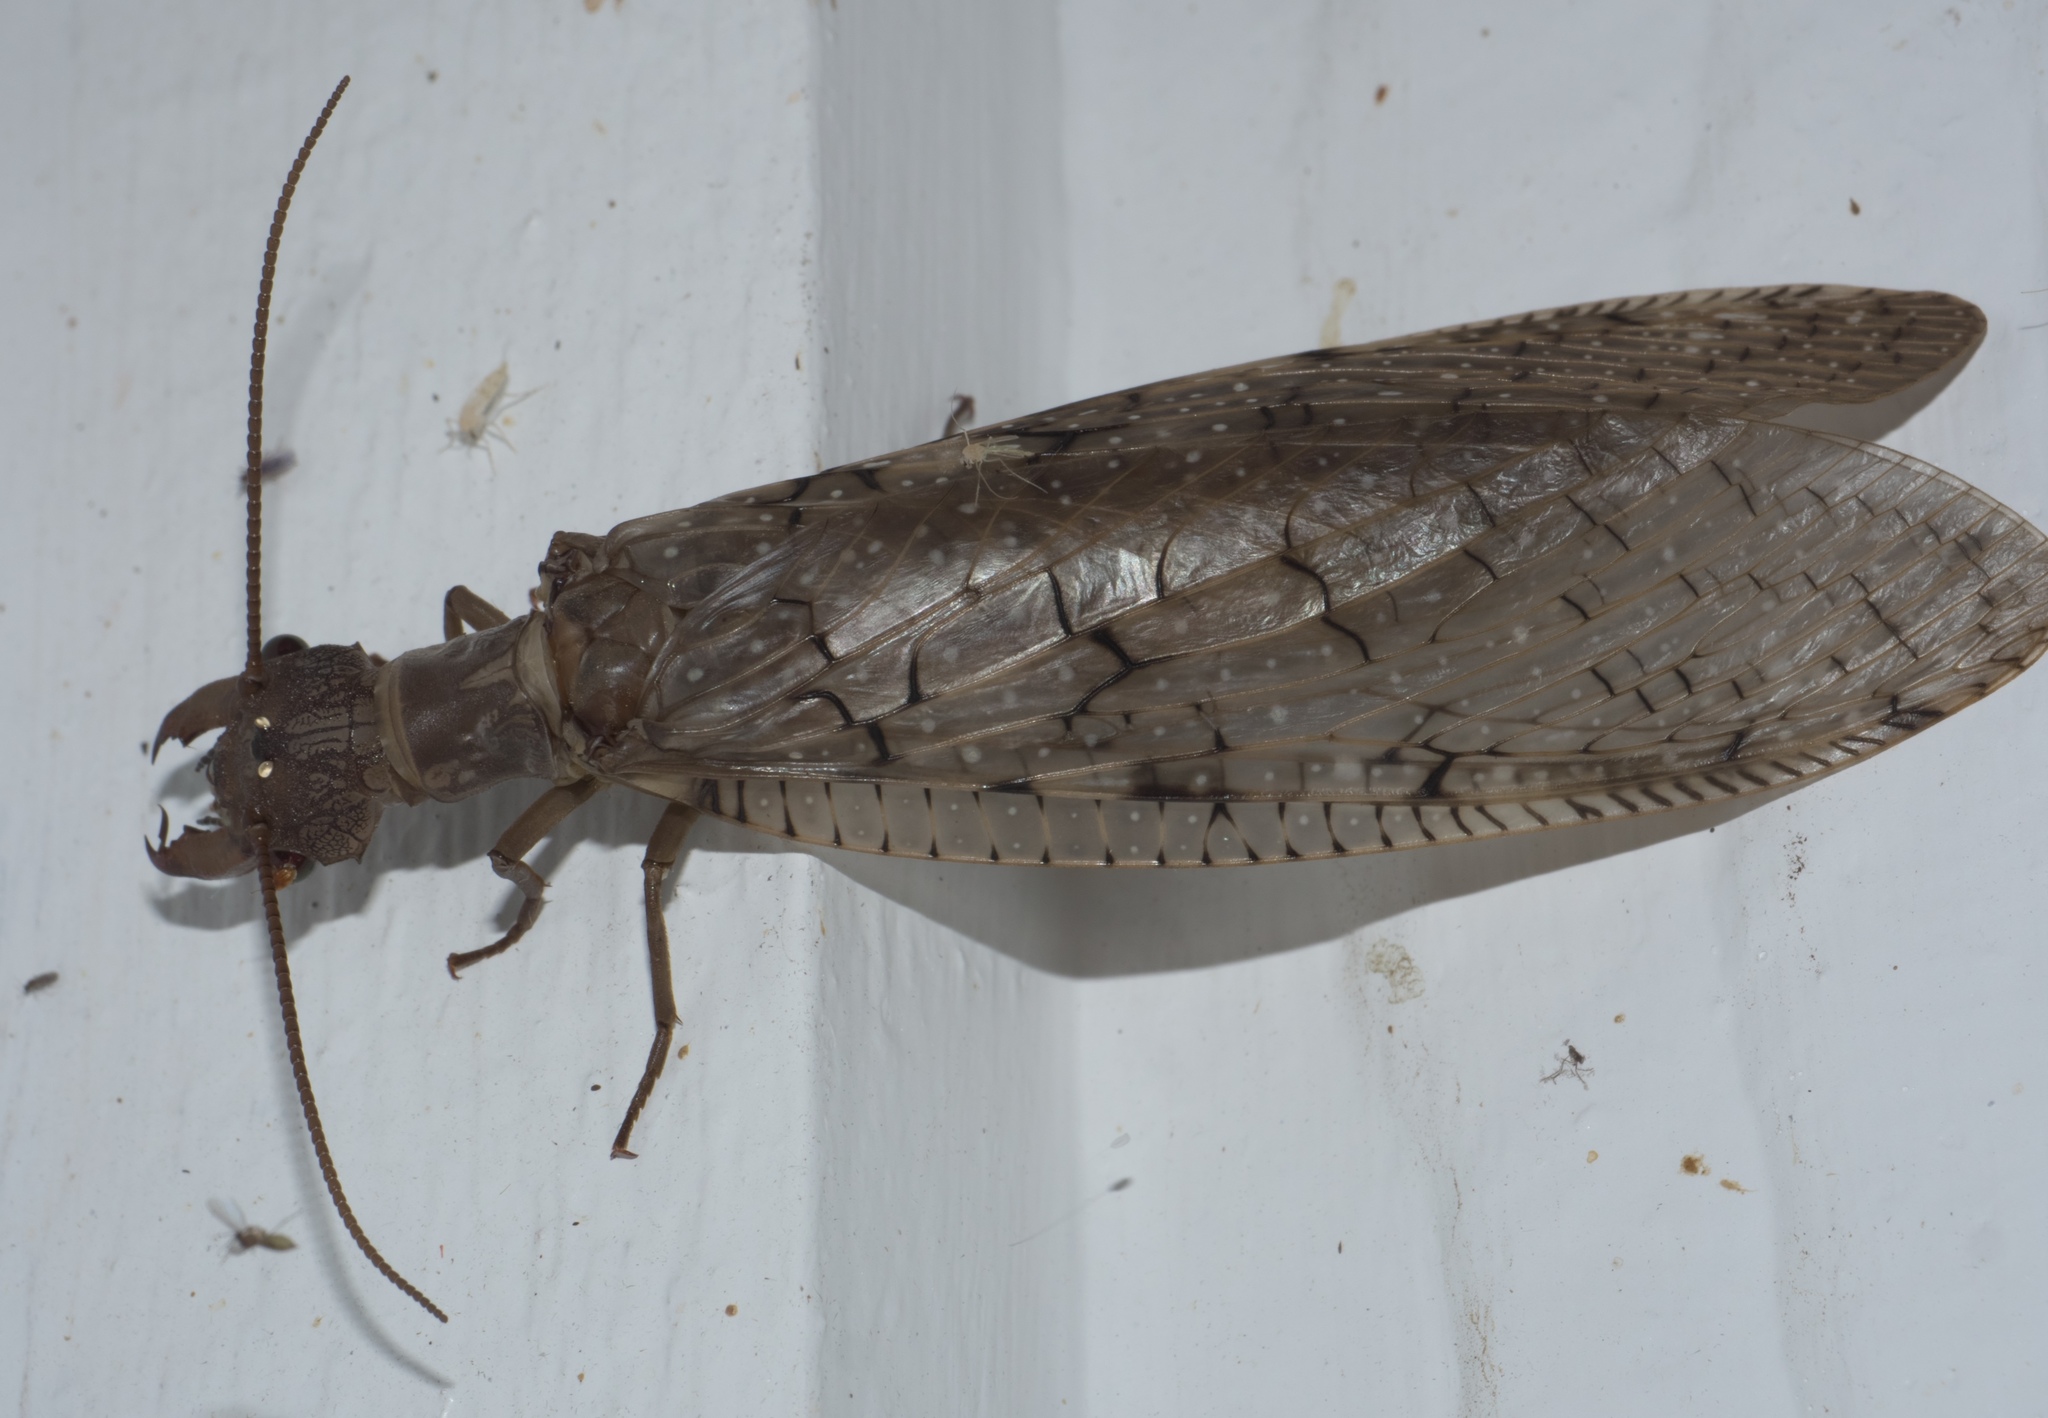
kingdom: Animalia
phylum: Arthropoda
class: Insecta
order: Megaloptera
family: Corydalidae
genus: Corydalus
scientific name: Corydalus cornutus
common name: Dobsonfly
